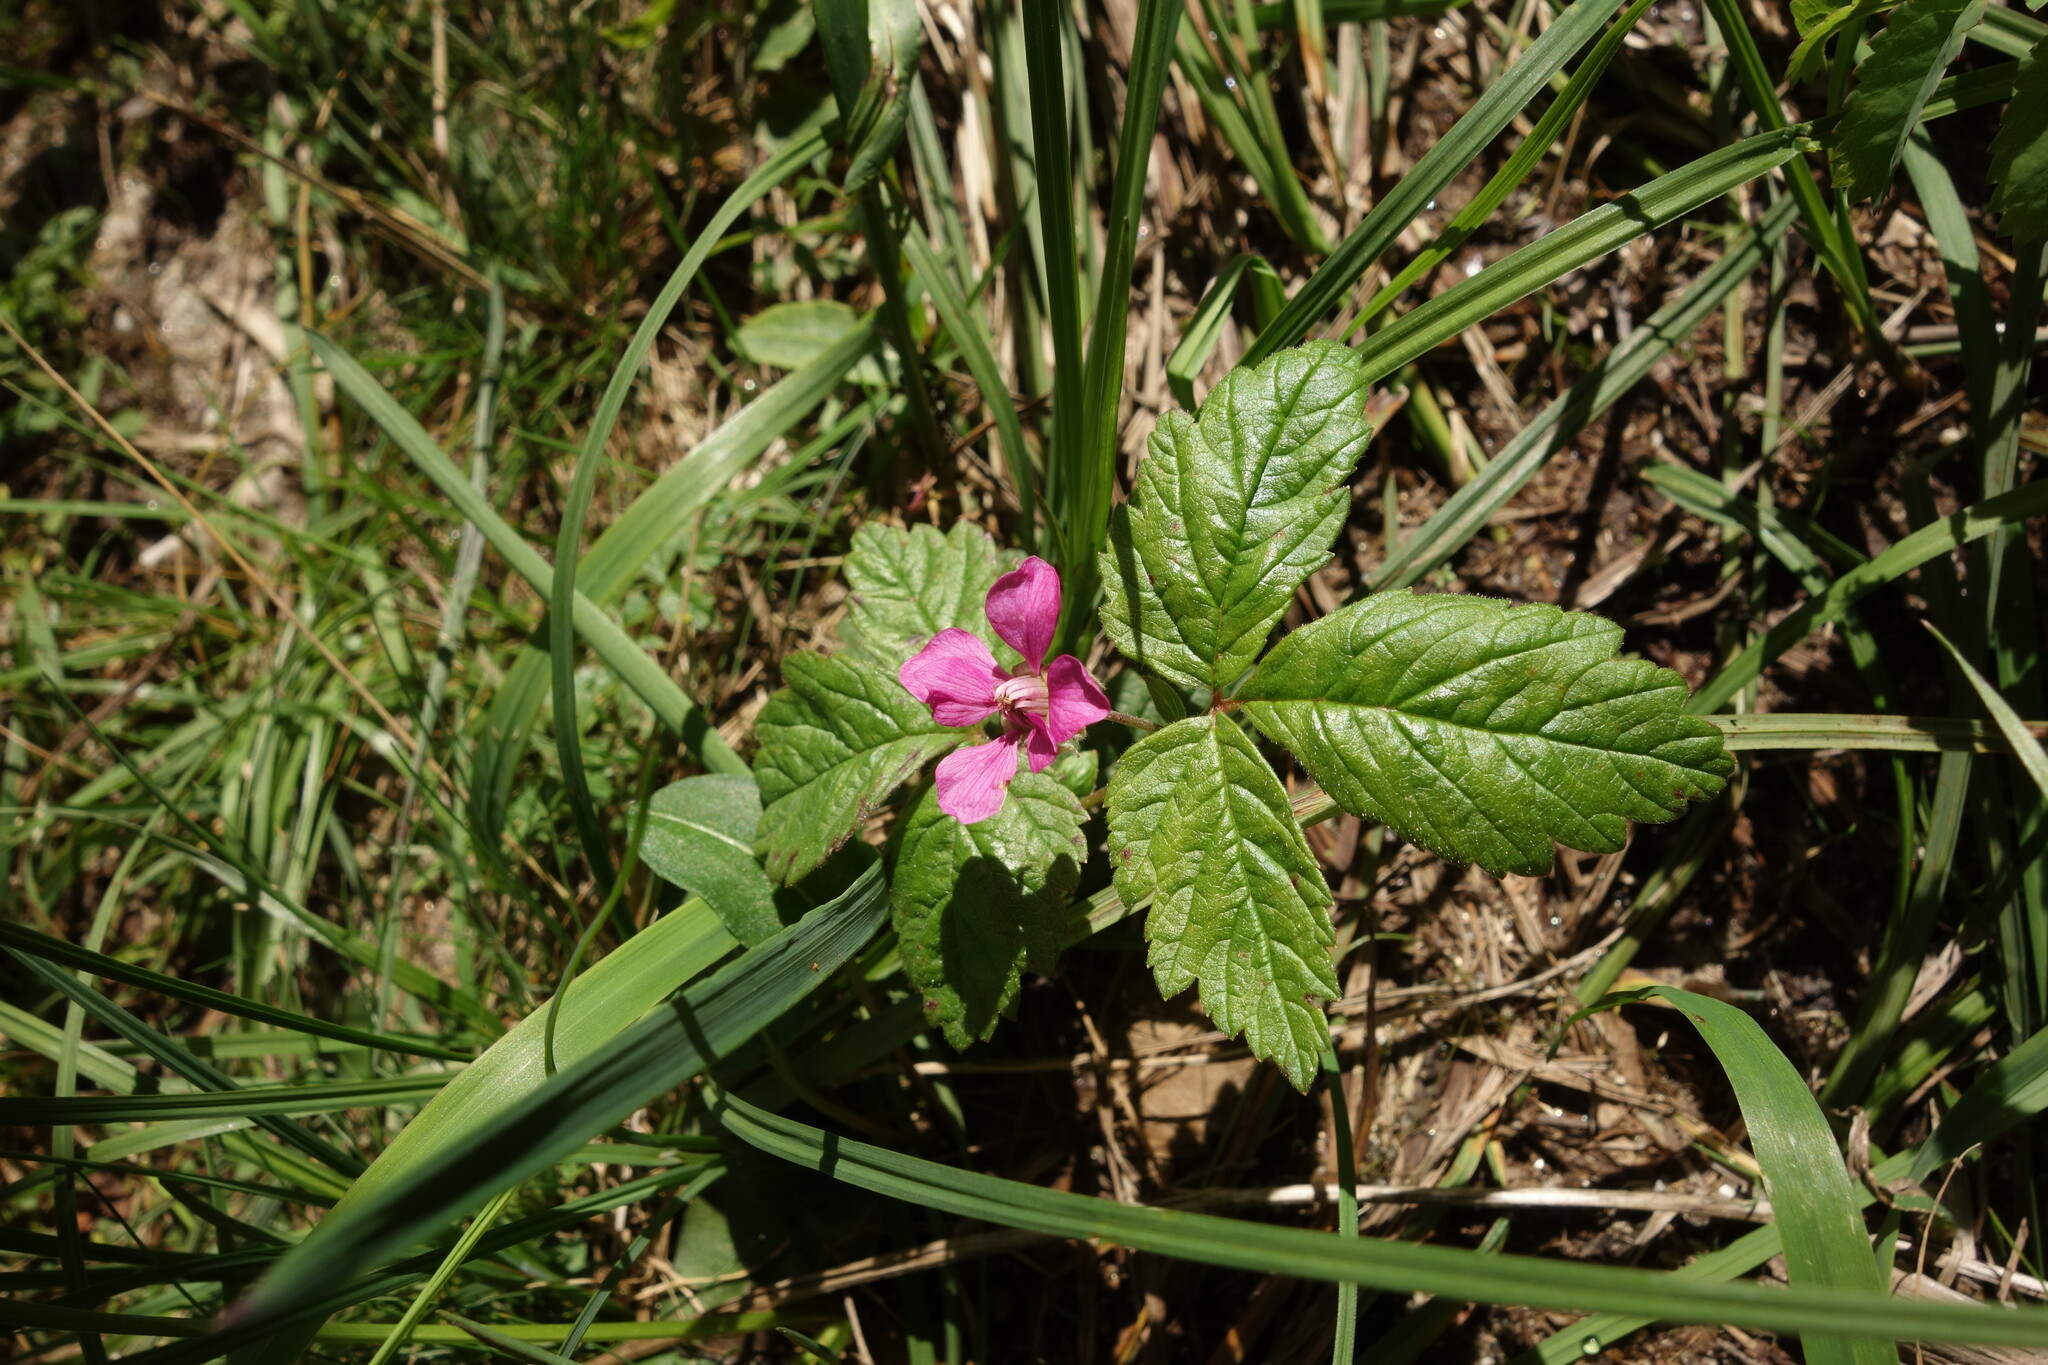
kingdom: Plantae
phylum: Tracheophyta
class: Magnoliopsida
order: Rosales
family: Rosaceae
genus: Rubus
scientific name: Rubus arcticus
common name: Arctic bramble
